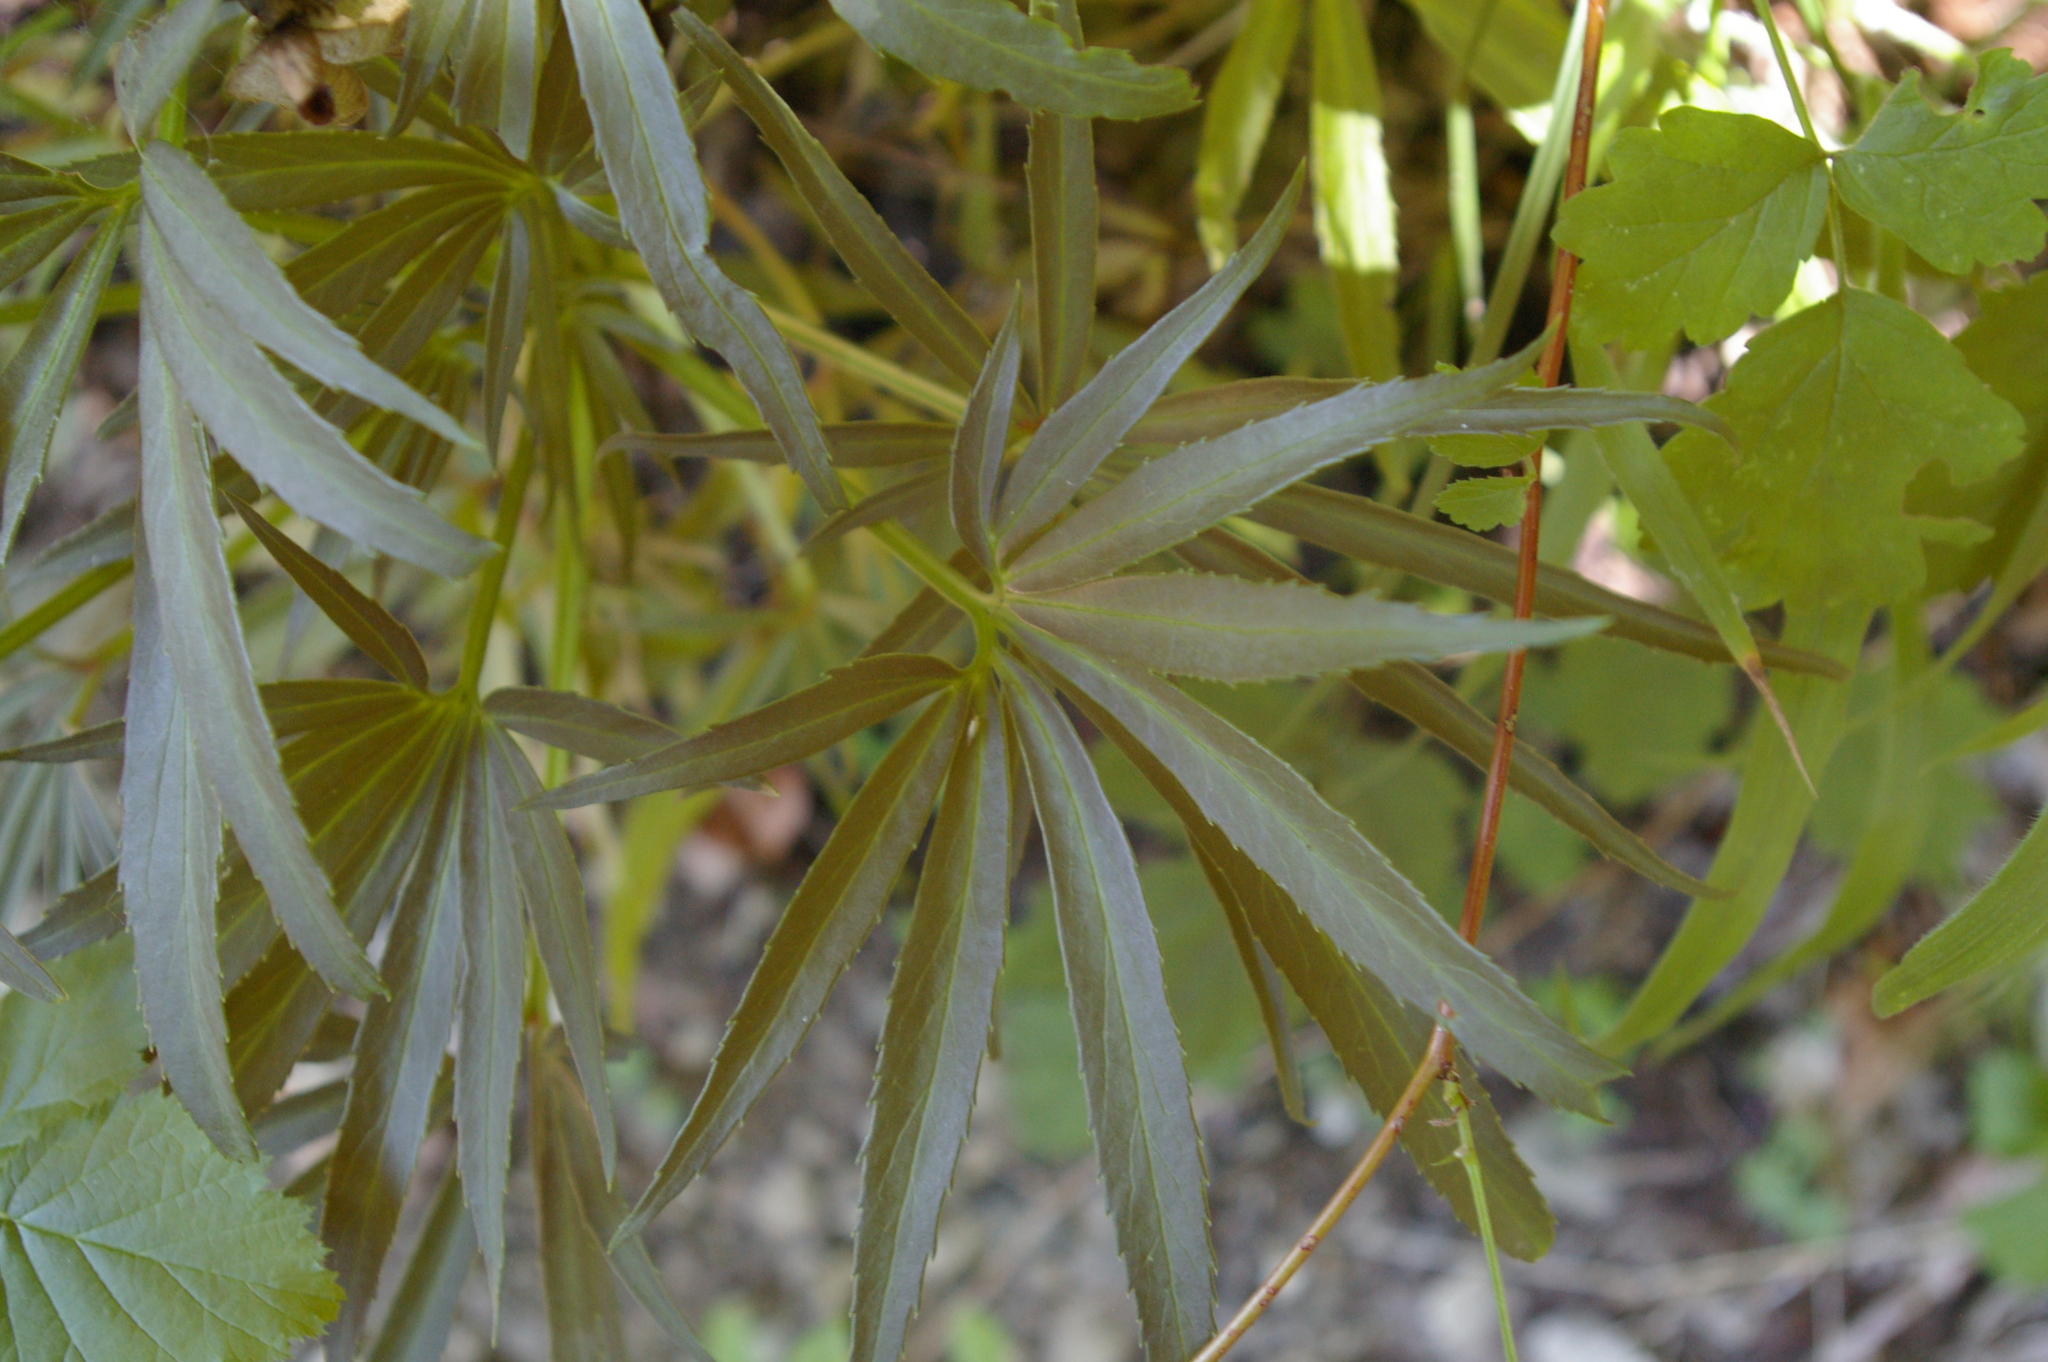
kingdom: Plantae
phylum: Tracheophyta
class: Magnoliopsida
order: Ranunculales
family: Ranunculaceae
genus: Helleborus
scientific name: Helleborus foetidus
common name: Stinking hellebore
